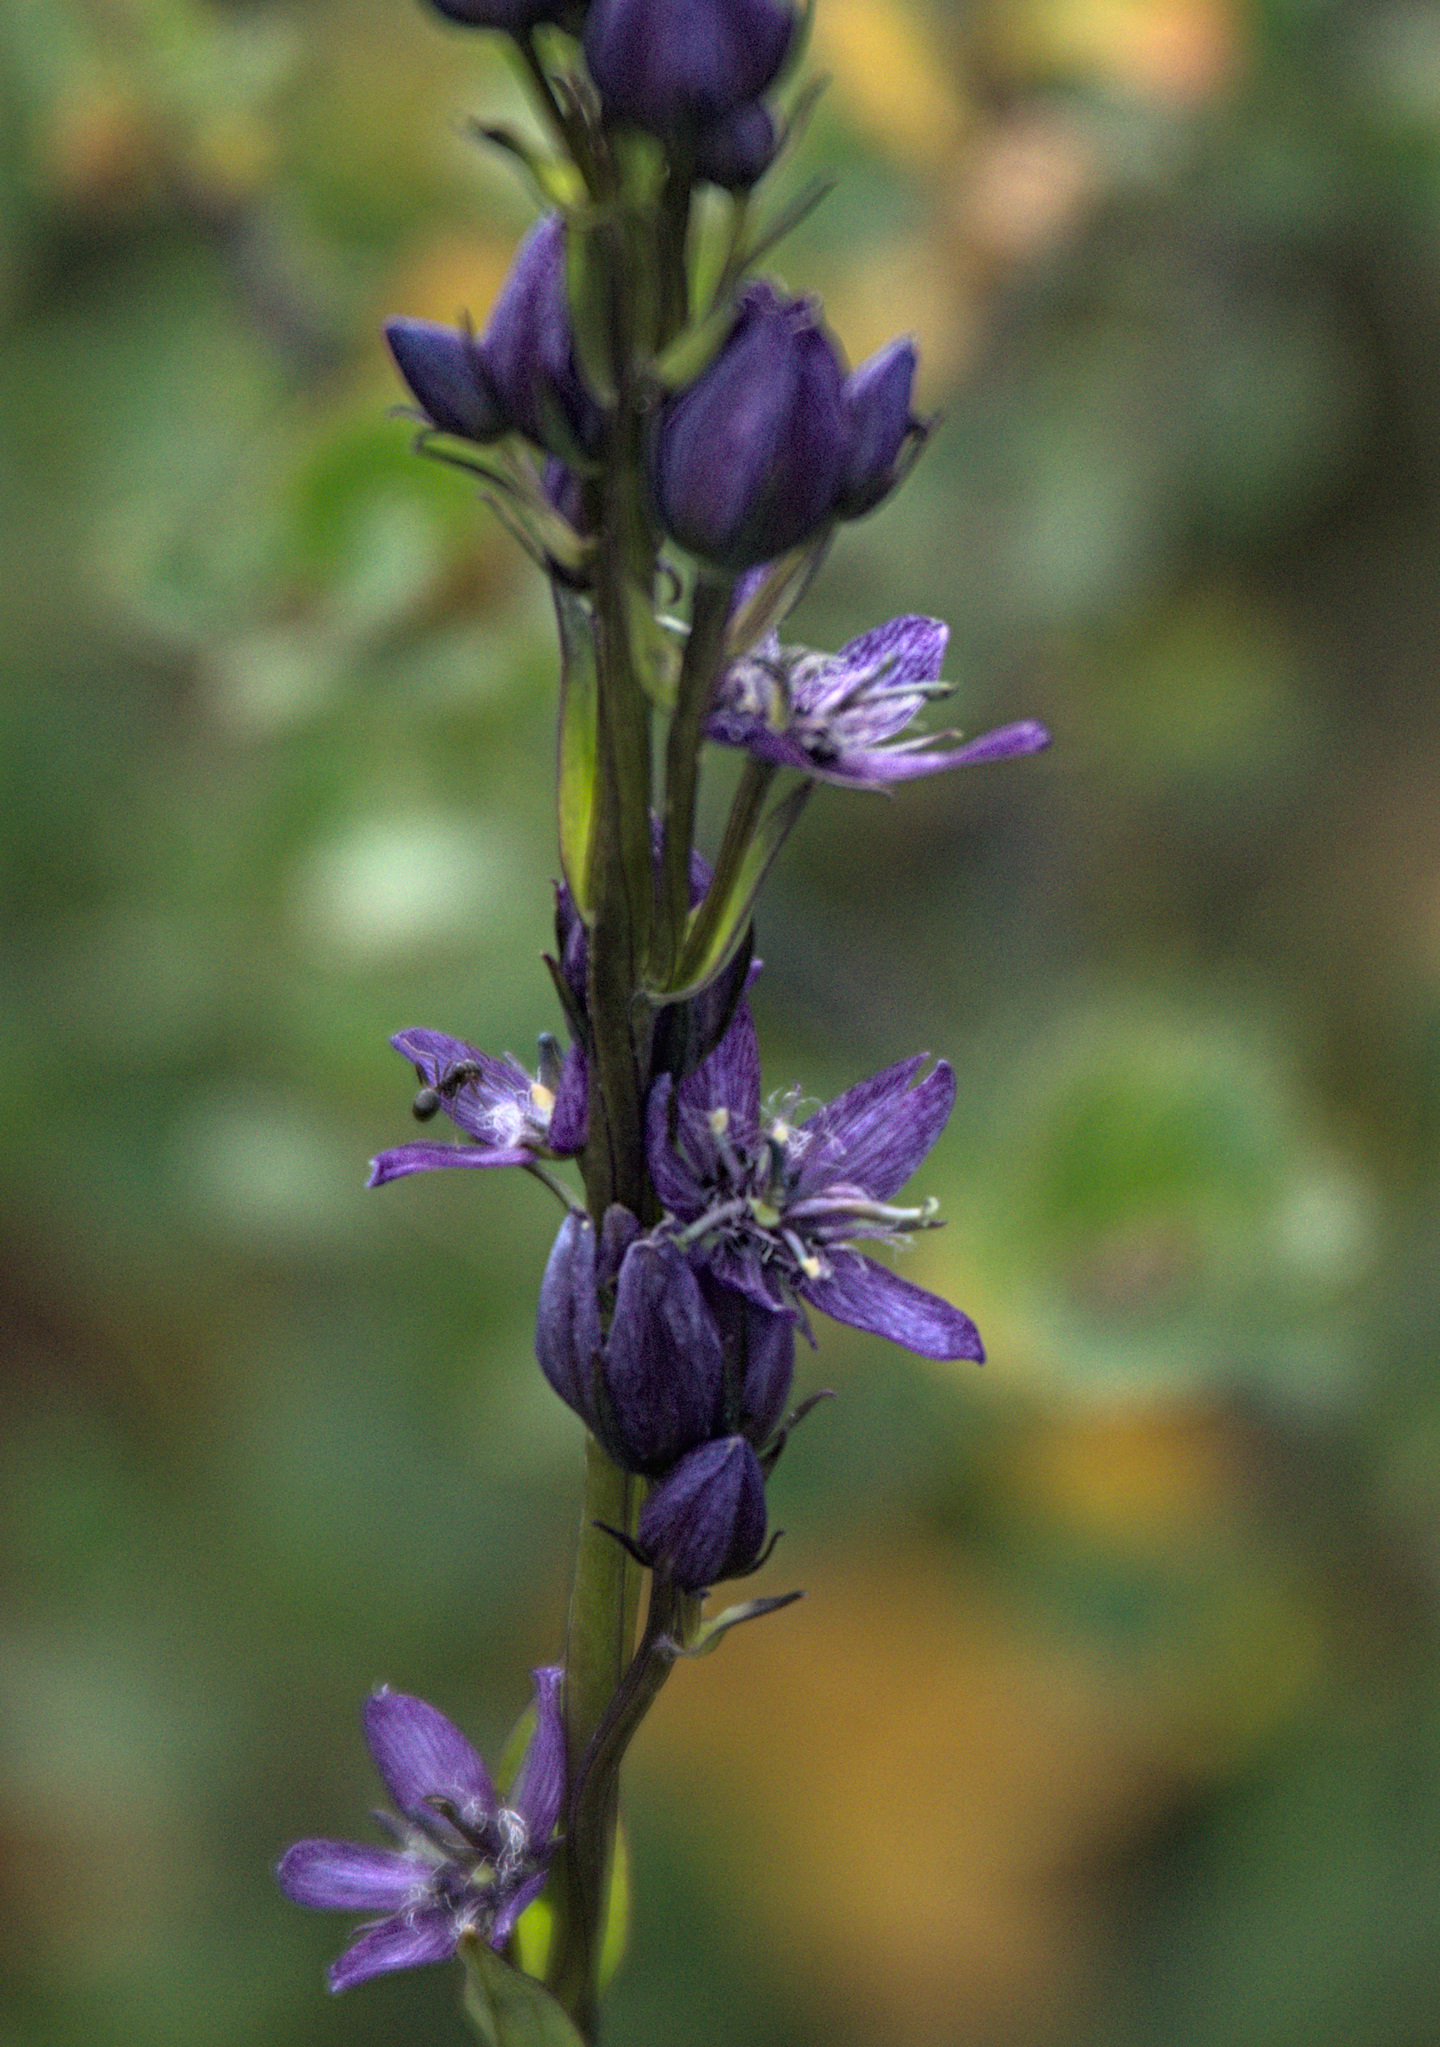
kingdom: Plantae
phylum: Tracheophyta
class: Magnoliopsida
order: Gentianales
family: Gentianaceae
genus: Swertia
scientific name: Swertia obtusa
